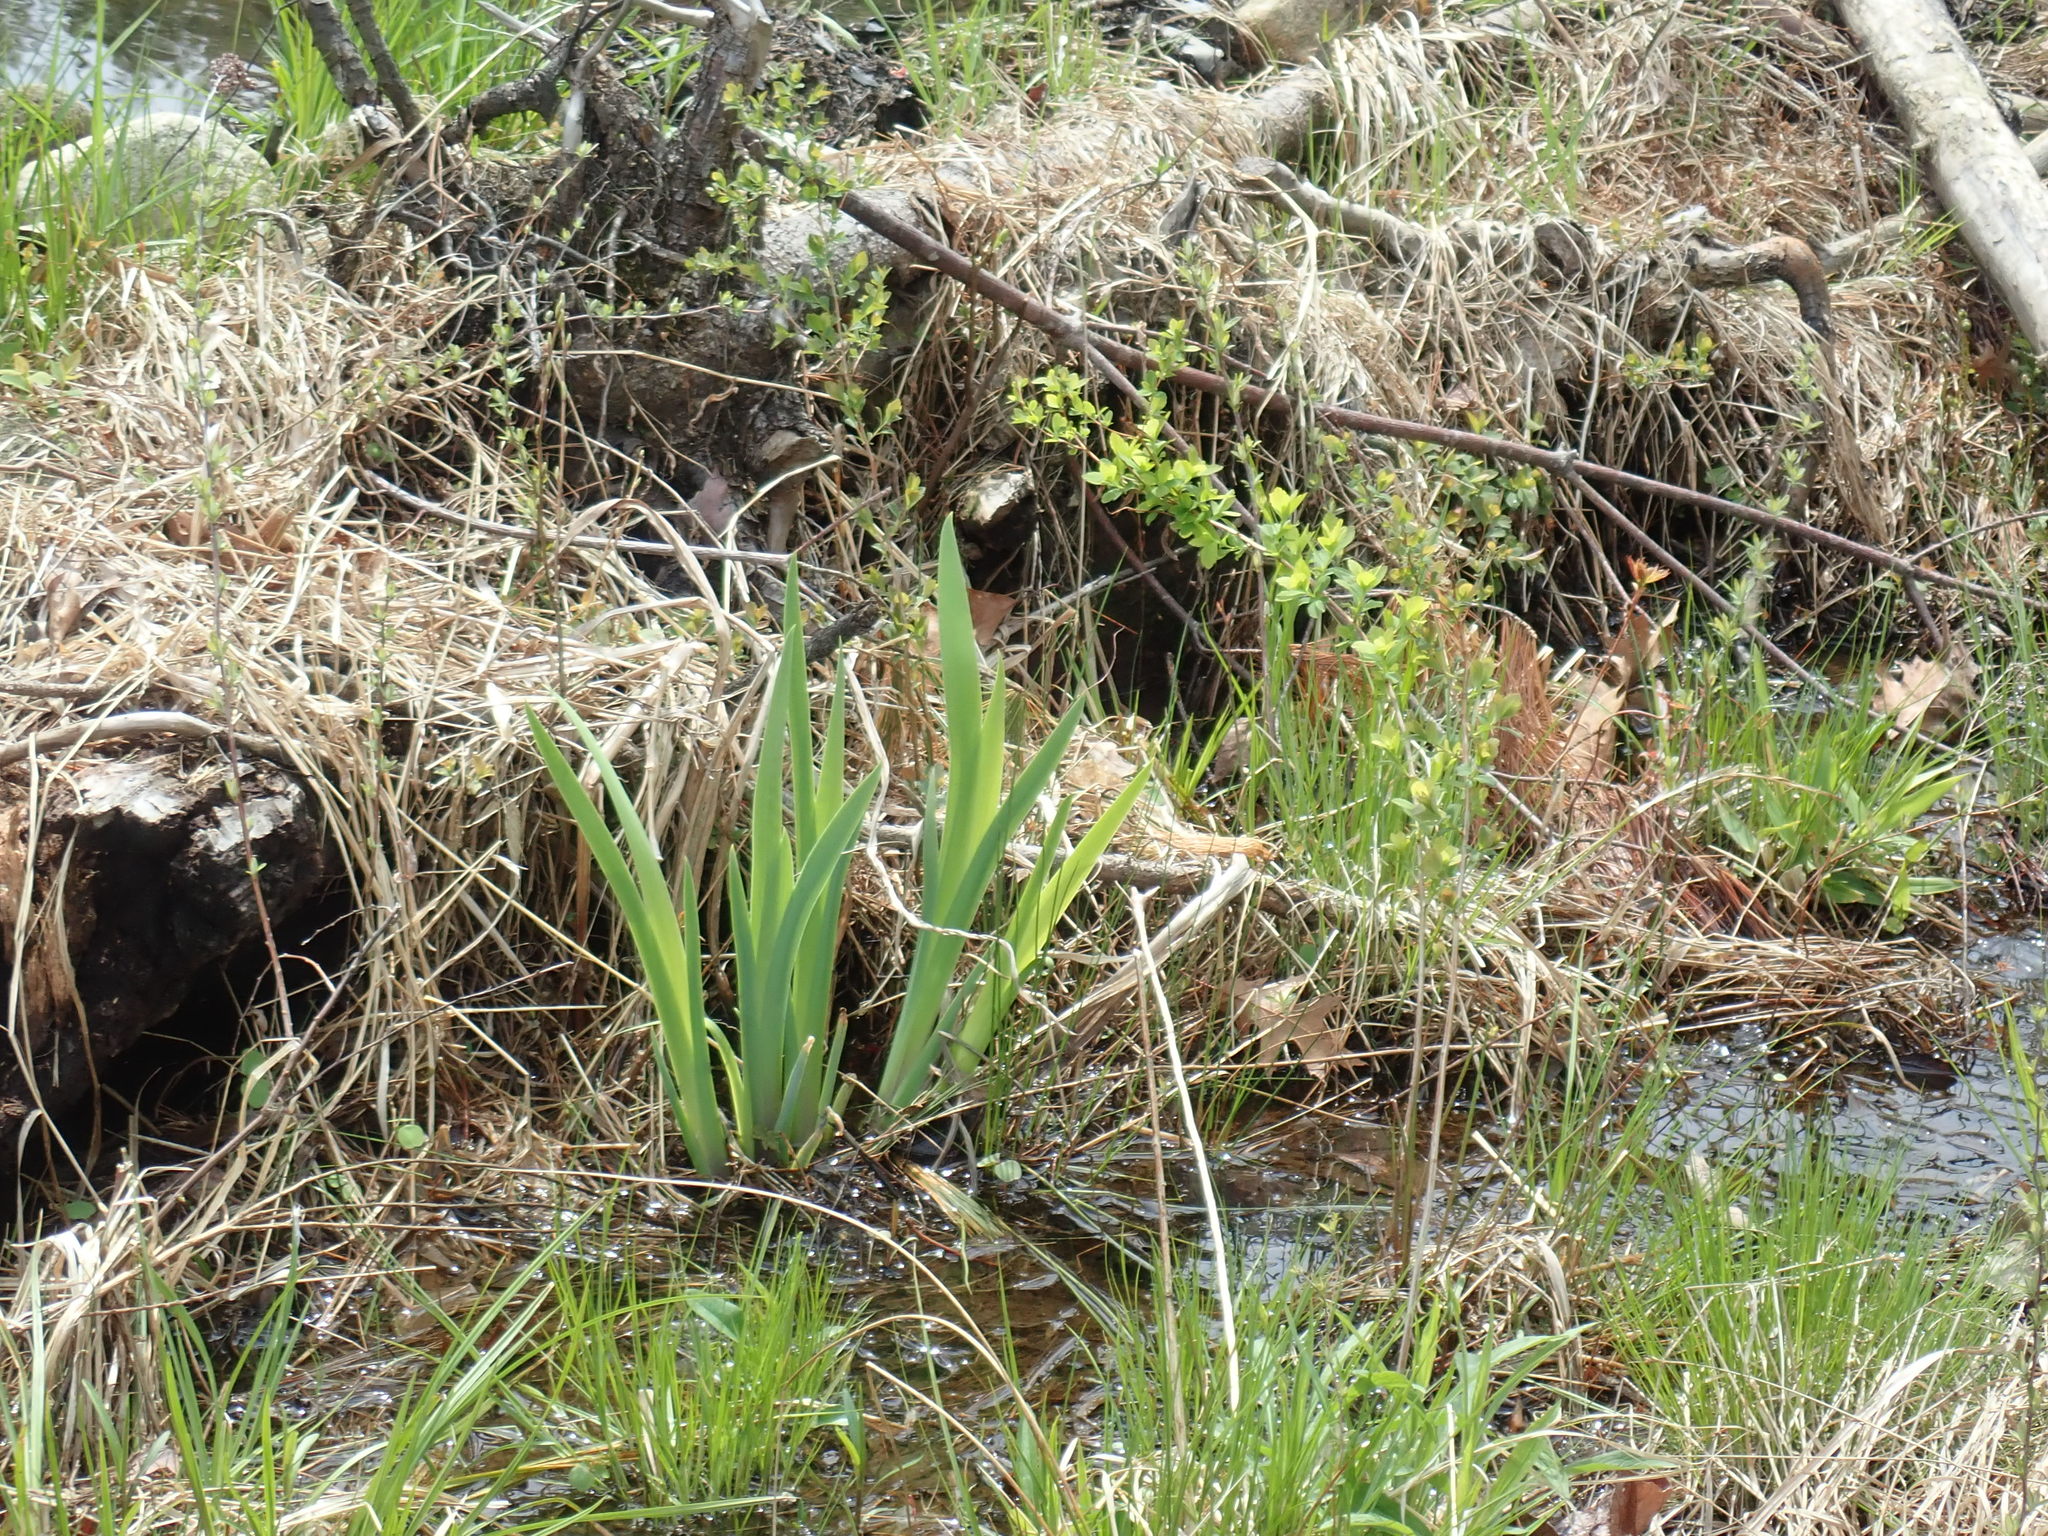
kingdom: Plantae
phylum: Tracheophyta
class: Liliopsida
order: Asparagales
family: Iridaceae
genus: Iris
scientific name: Iris
